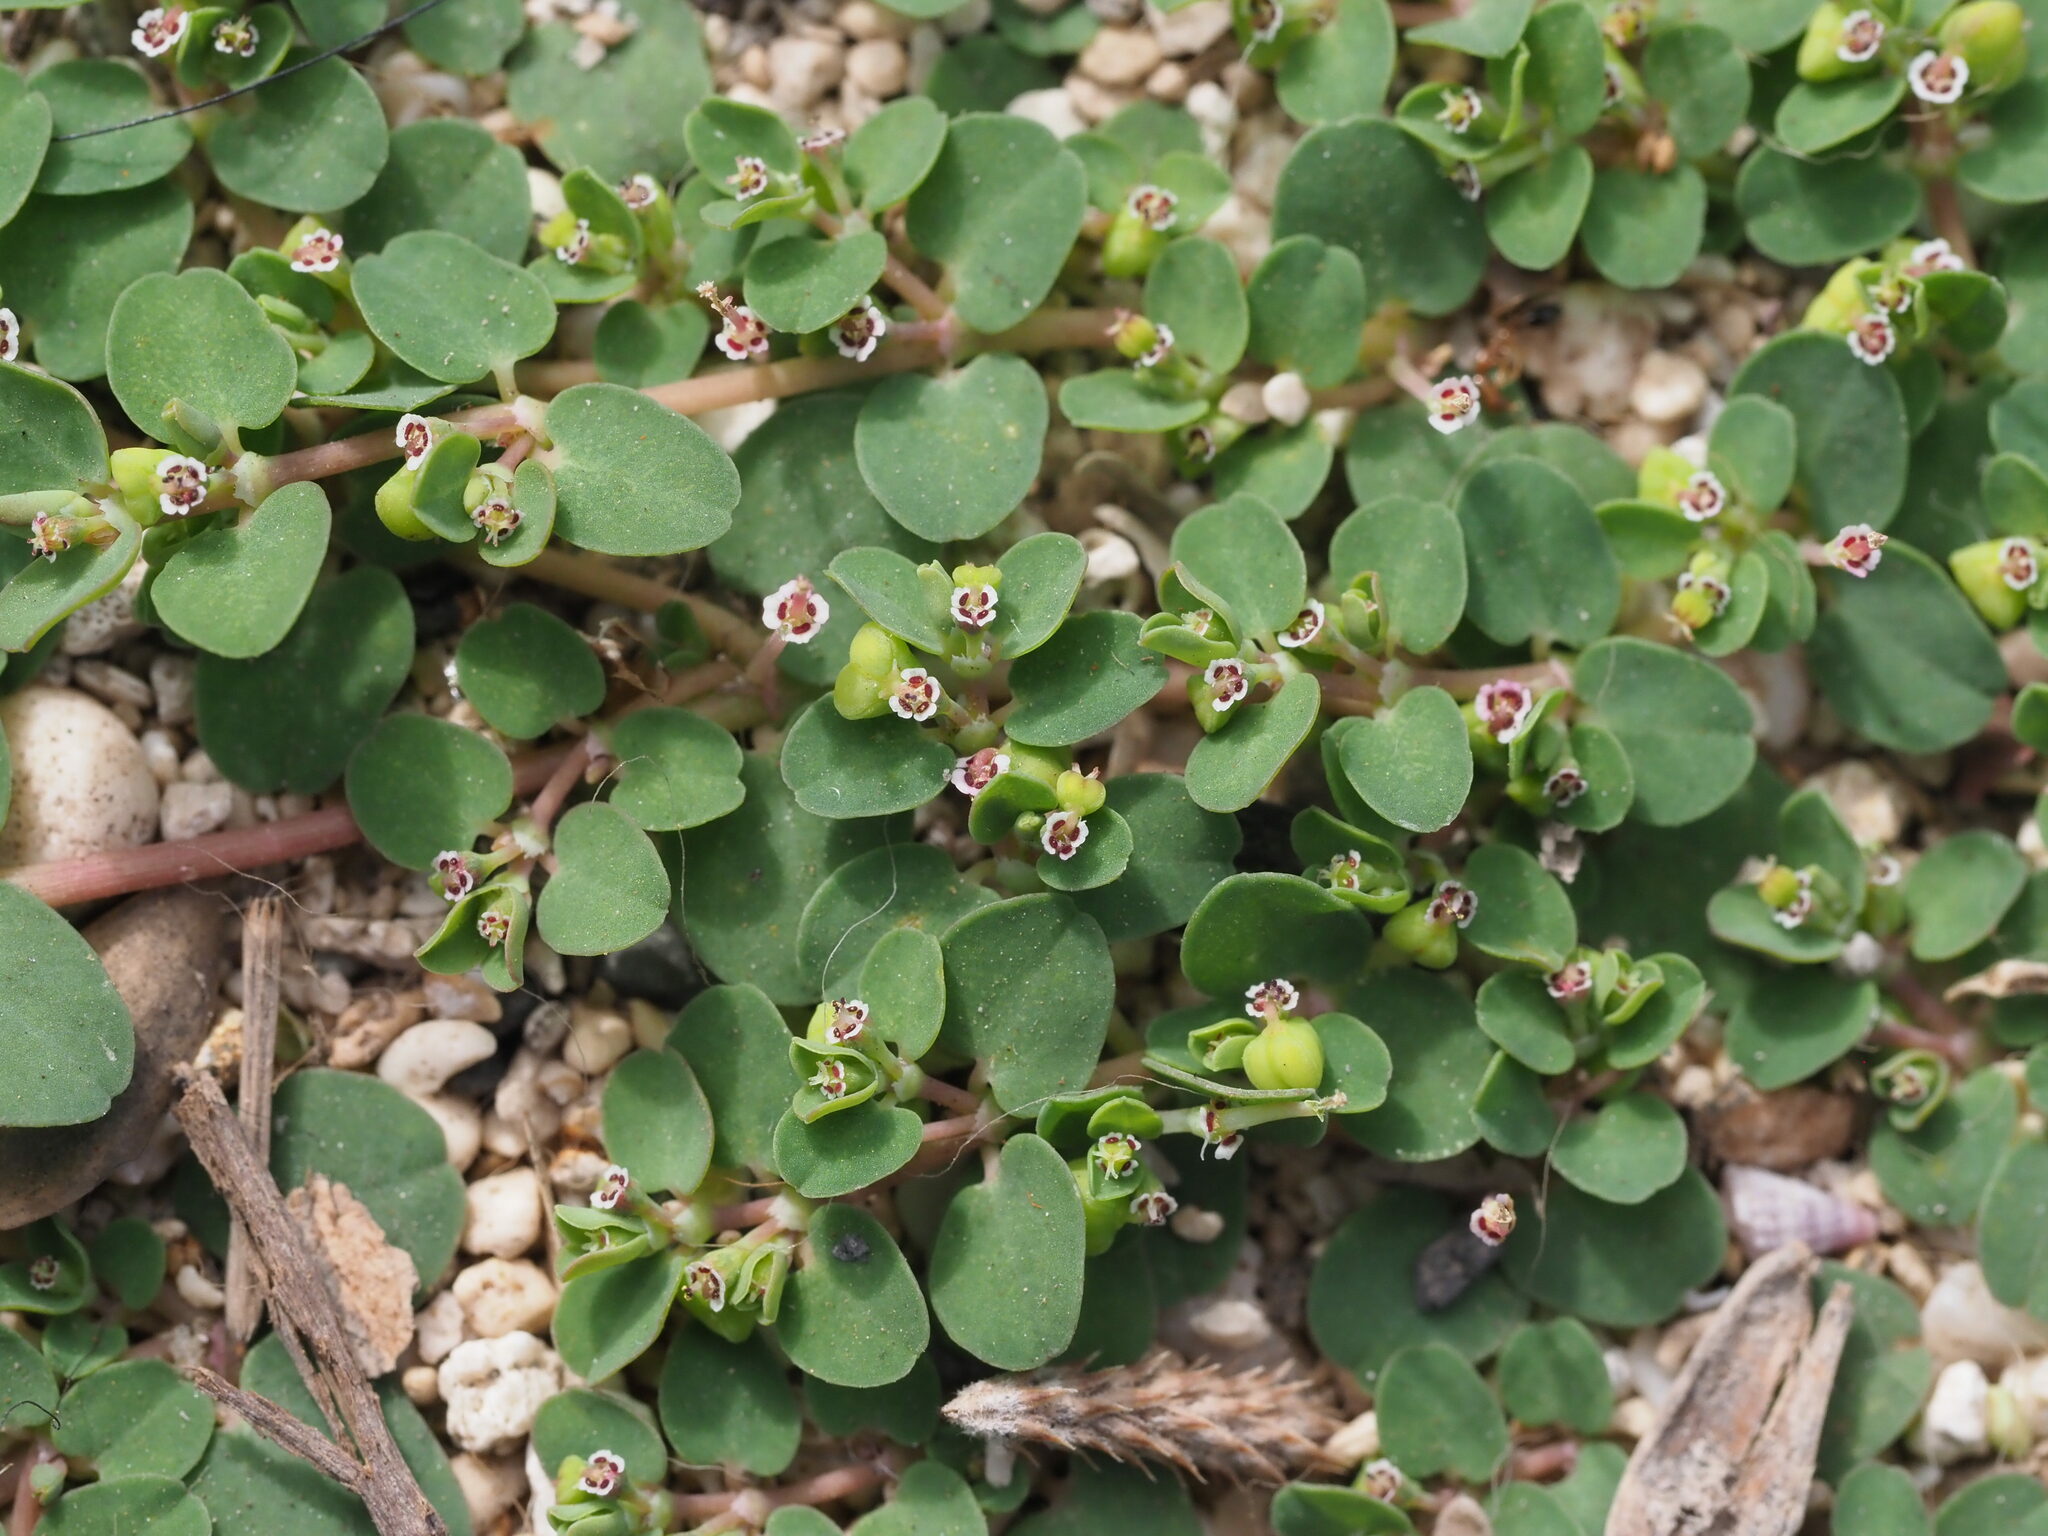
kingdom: Plantae
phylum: Tracheophyta
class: Magnoliopsida
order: Malpighiales
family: Euphorbiaceae
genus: Euphorbia
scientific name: Euphorbia serpens
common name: Matted sandmat
